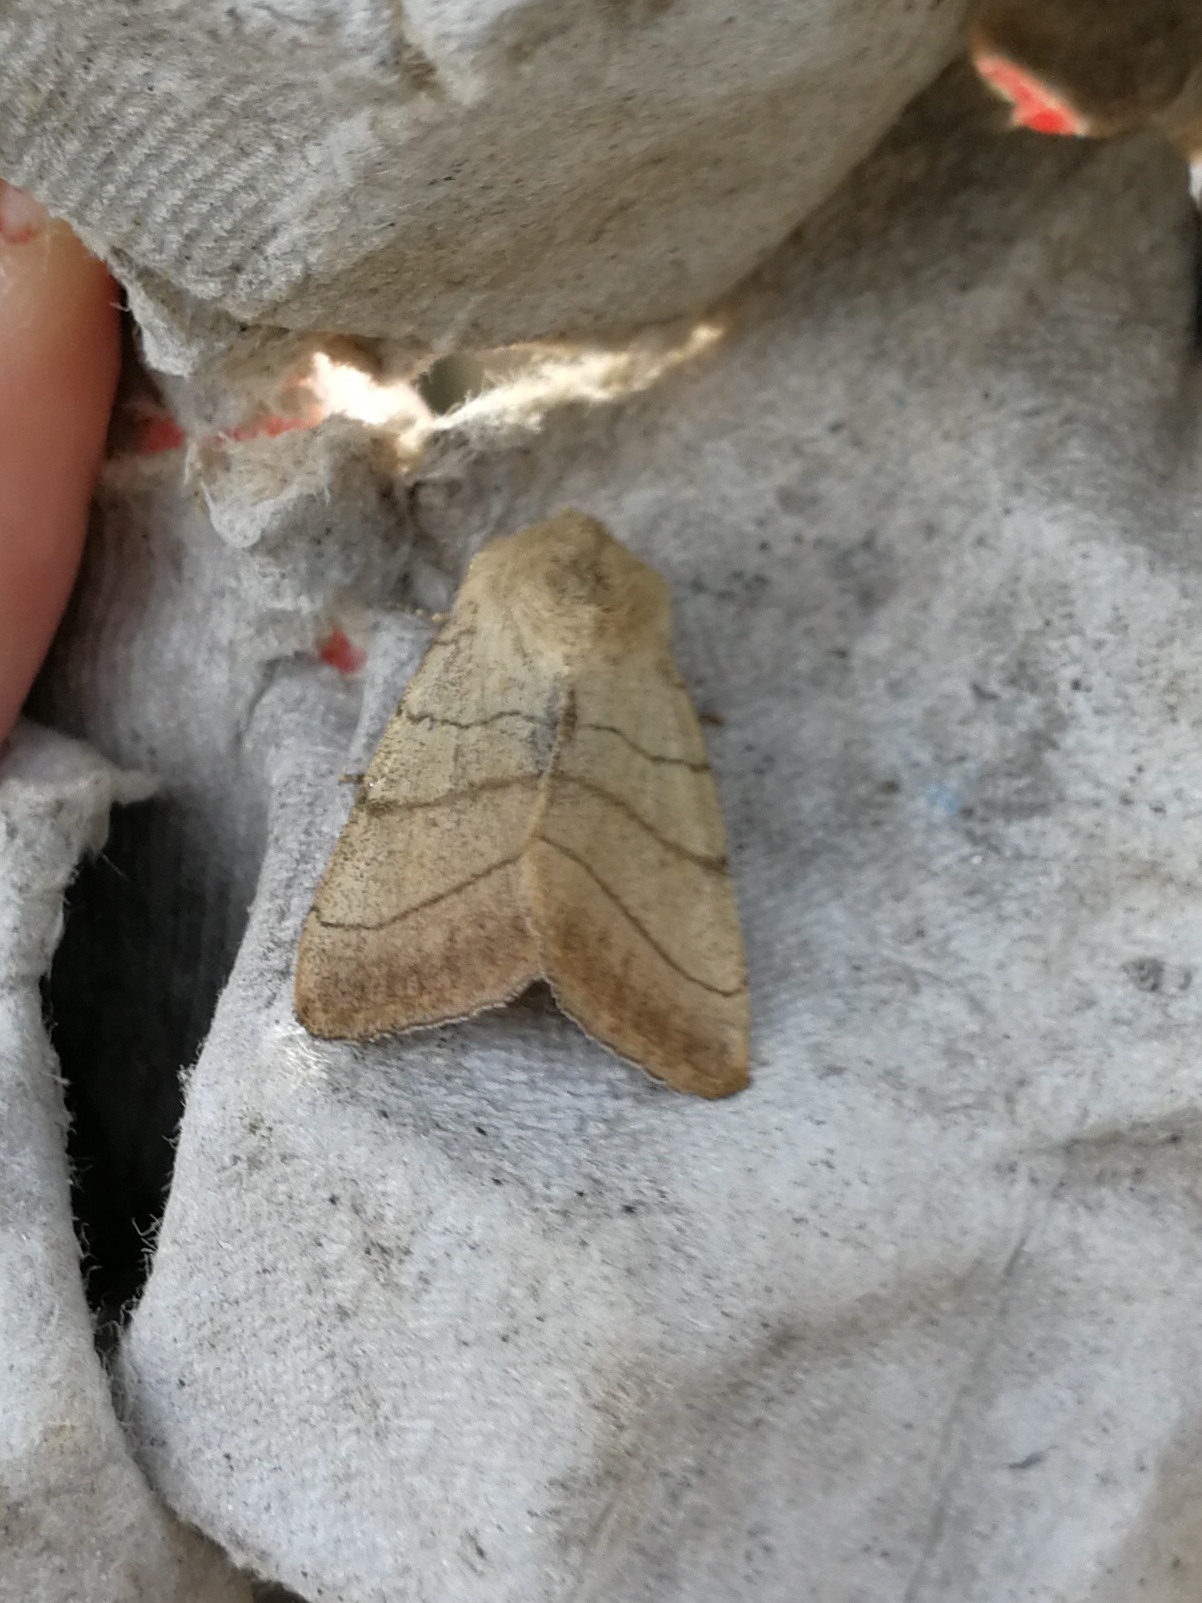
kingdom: Animalia
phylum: Arthropoda
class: Insecta
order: Lepidoptera
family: Noctuidae
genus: Charanyca
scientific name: Charanyca trigrammica
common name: Treble lines
